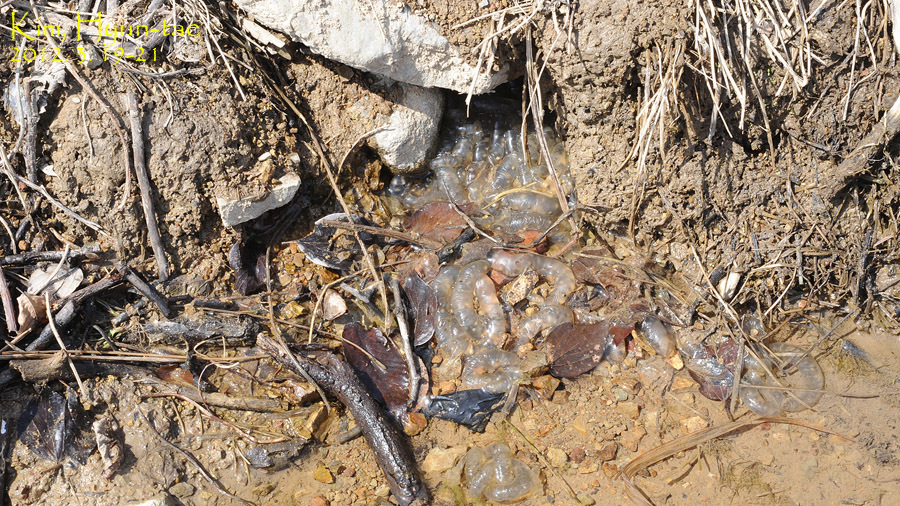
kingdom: Animalia
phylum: Chordata
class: Amphibia
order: Caudata
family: Hynobiidae
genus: Hynobius
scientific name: Hynobius leechii
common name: Gensan salamander
